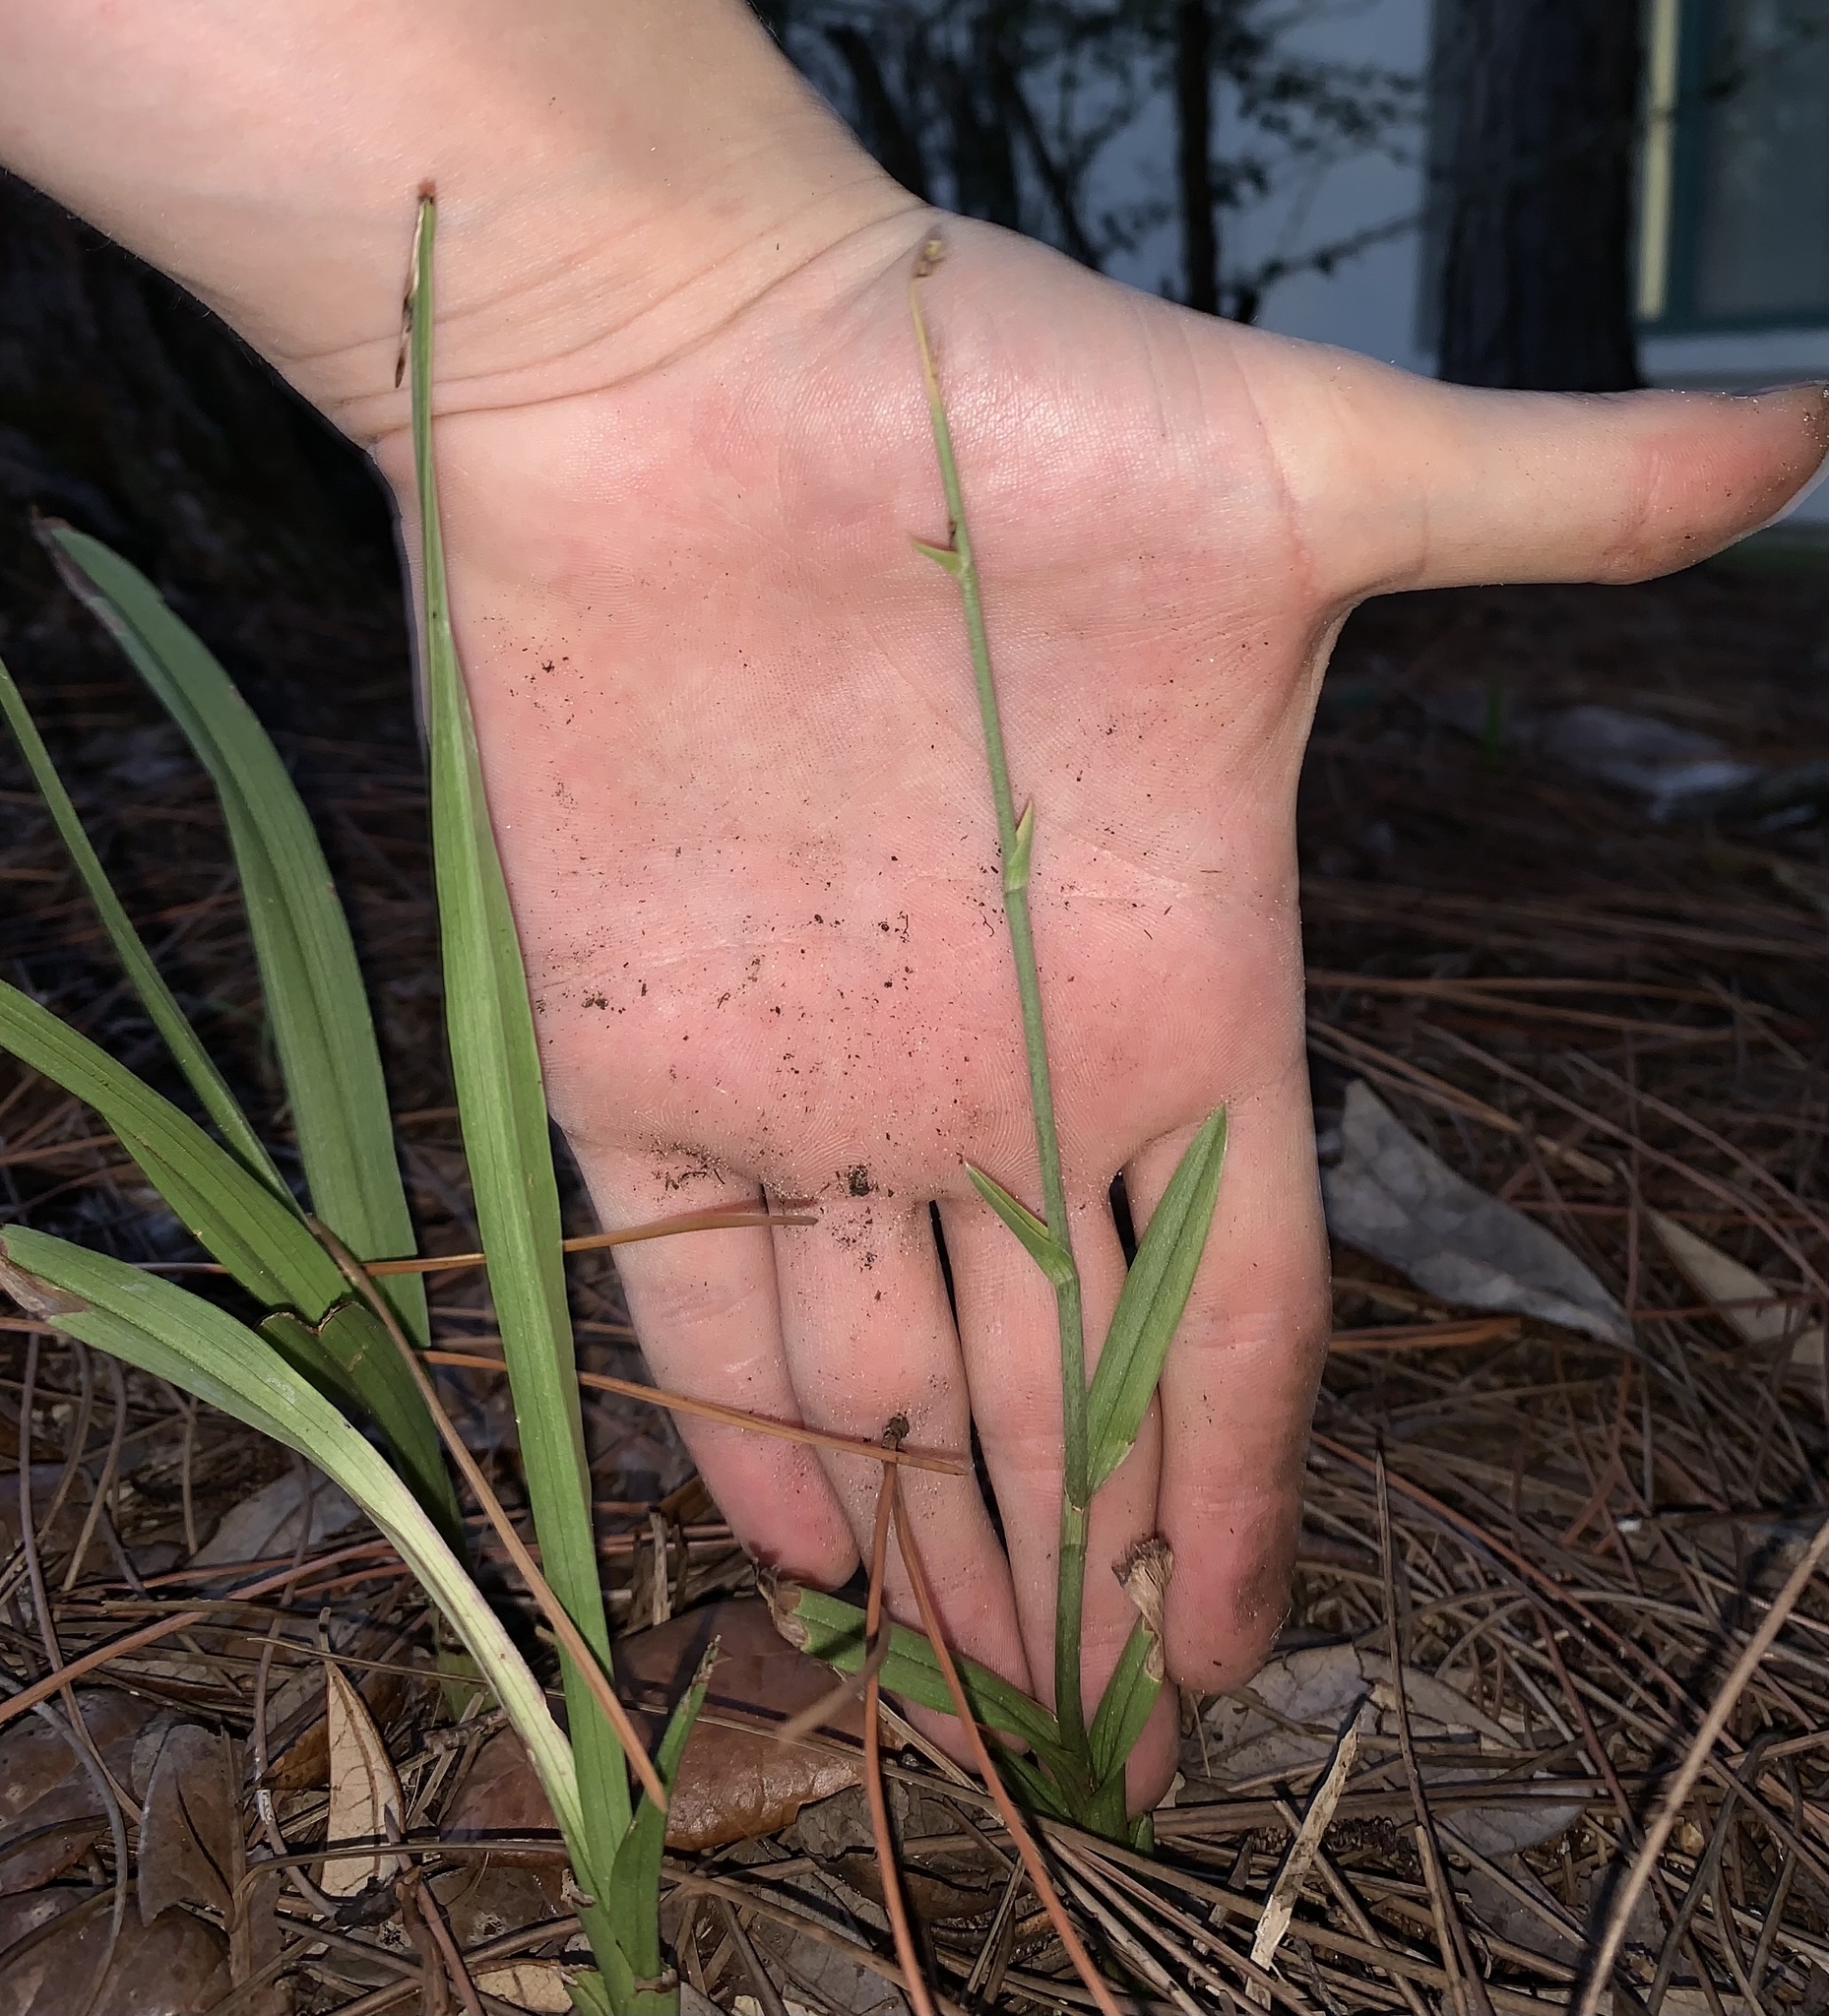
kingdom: Plantae
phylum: Tracheophyta
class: Liliopsida
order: Asparagales
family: Orchidaceae
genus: Eulophia
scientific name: Eulophia graminea
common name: Orchid
